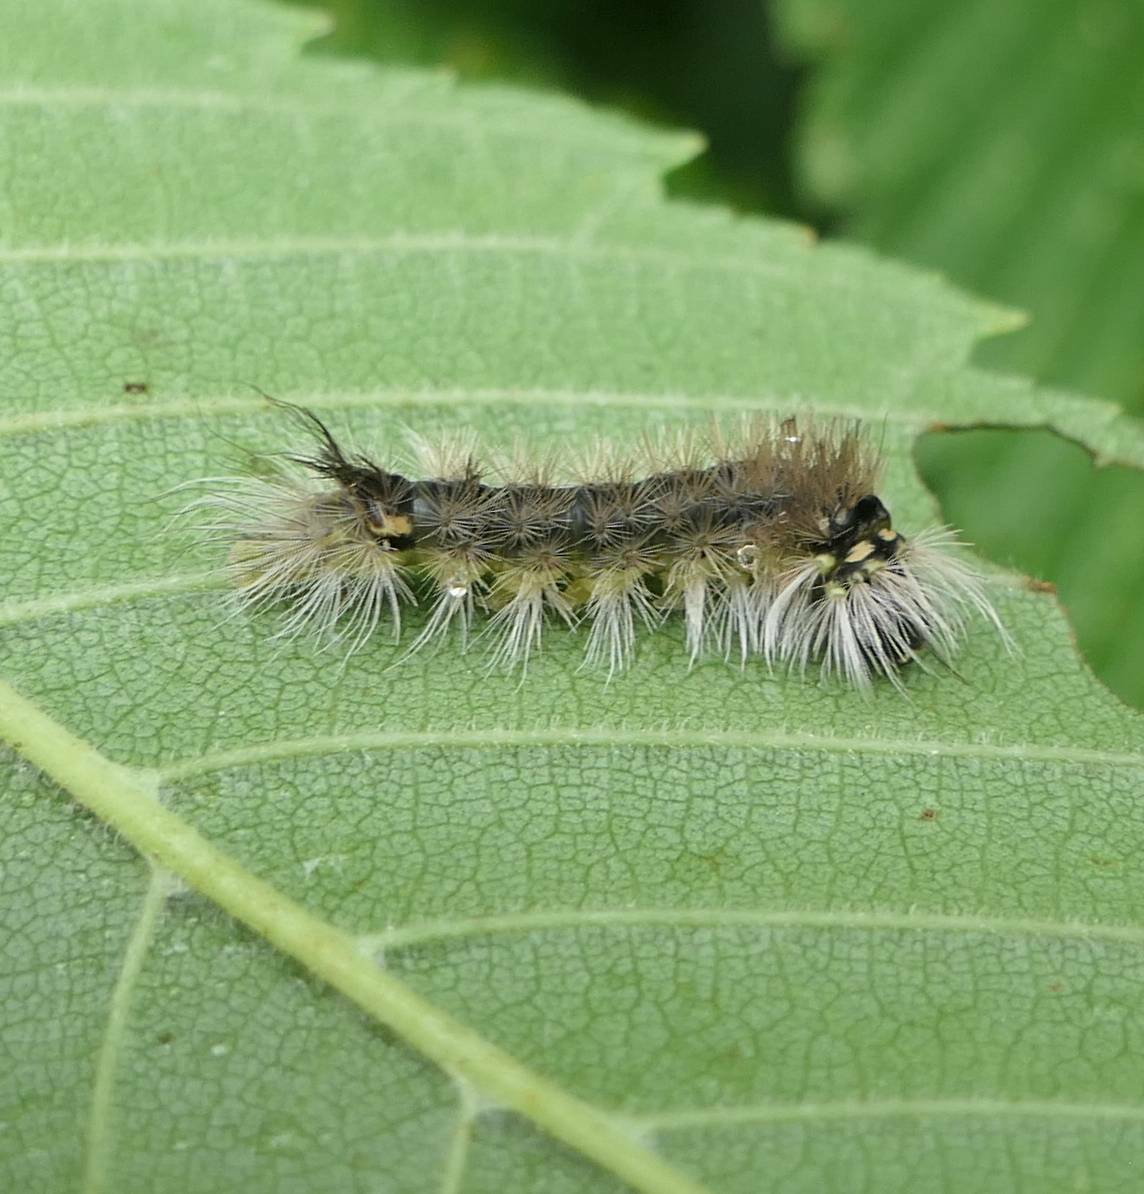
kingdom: Animalia
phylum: Arthropoda
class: Insecta
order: Lepidoptera
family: Erebidae
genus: Halysidota
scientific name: Halysidota tessellaris
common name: Banded tussock moth
